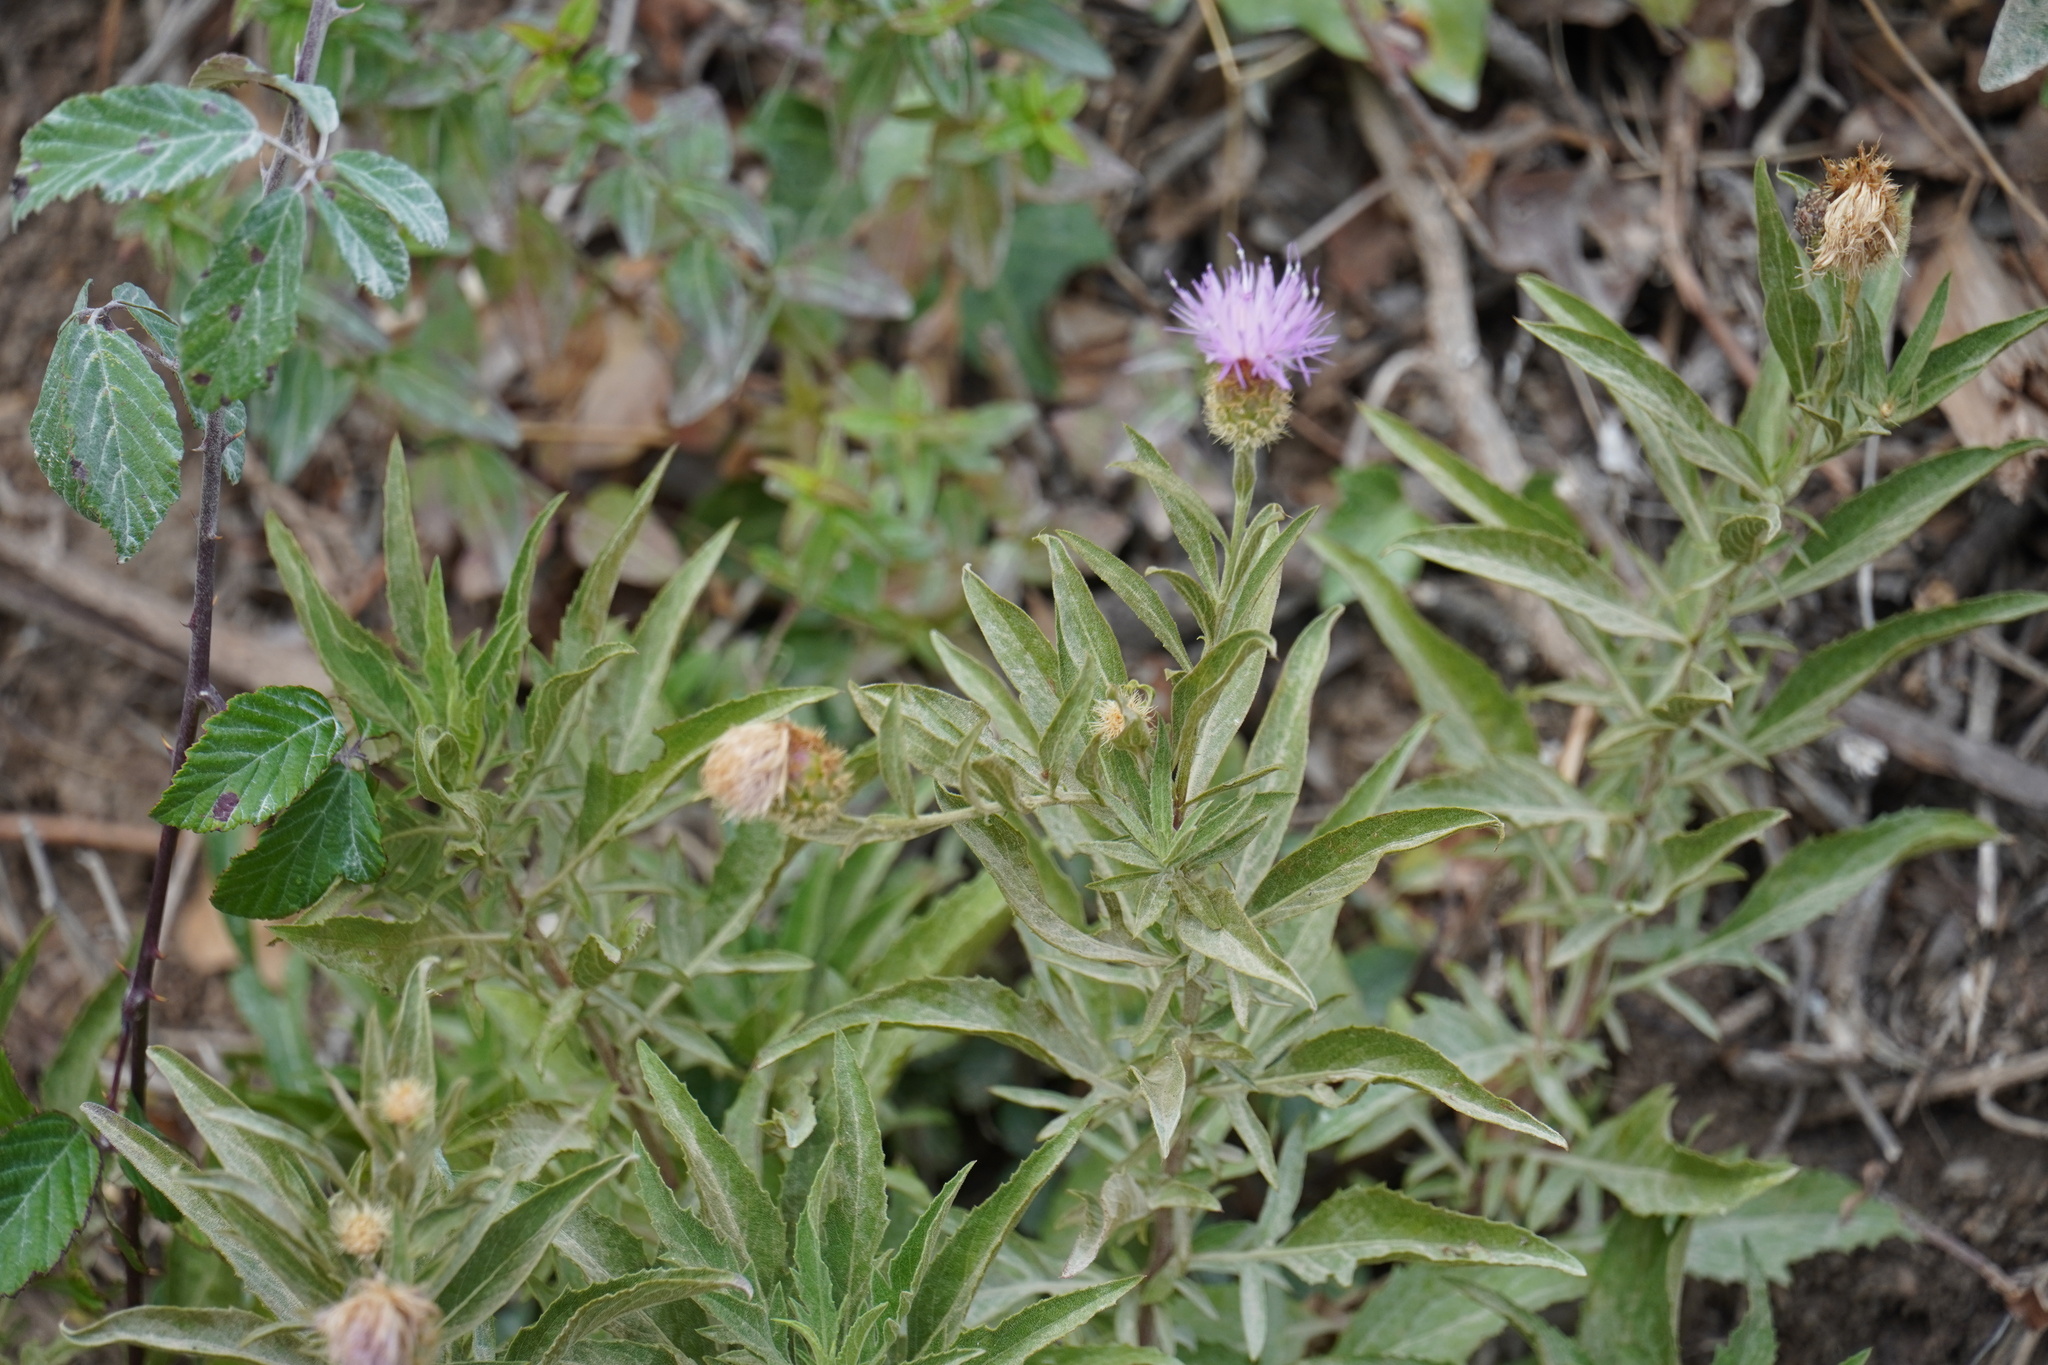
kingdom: Plantae
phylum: Tracheophyta
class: Magnoliopsida
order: Asterales
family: Asteraceae
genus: Cheirolophus
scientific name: Cheirolophus sempervirens
